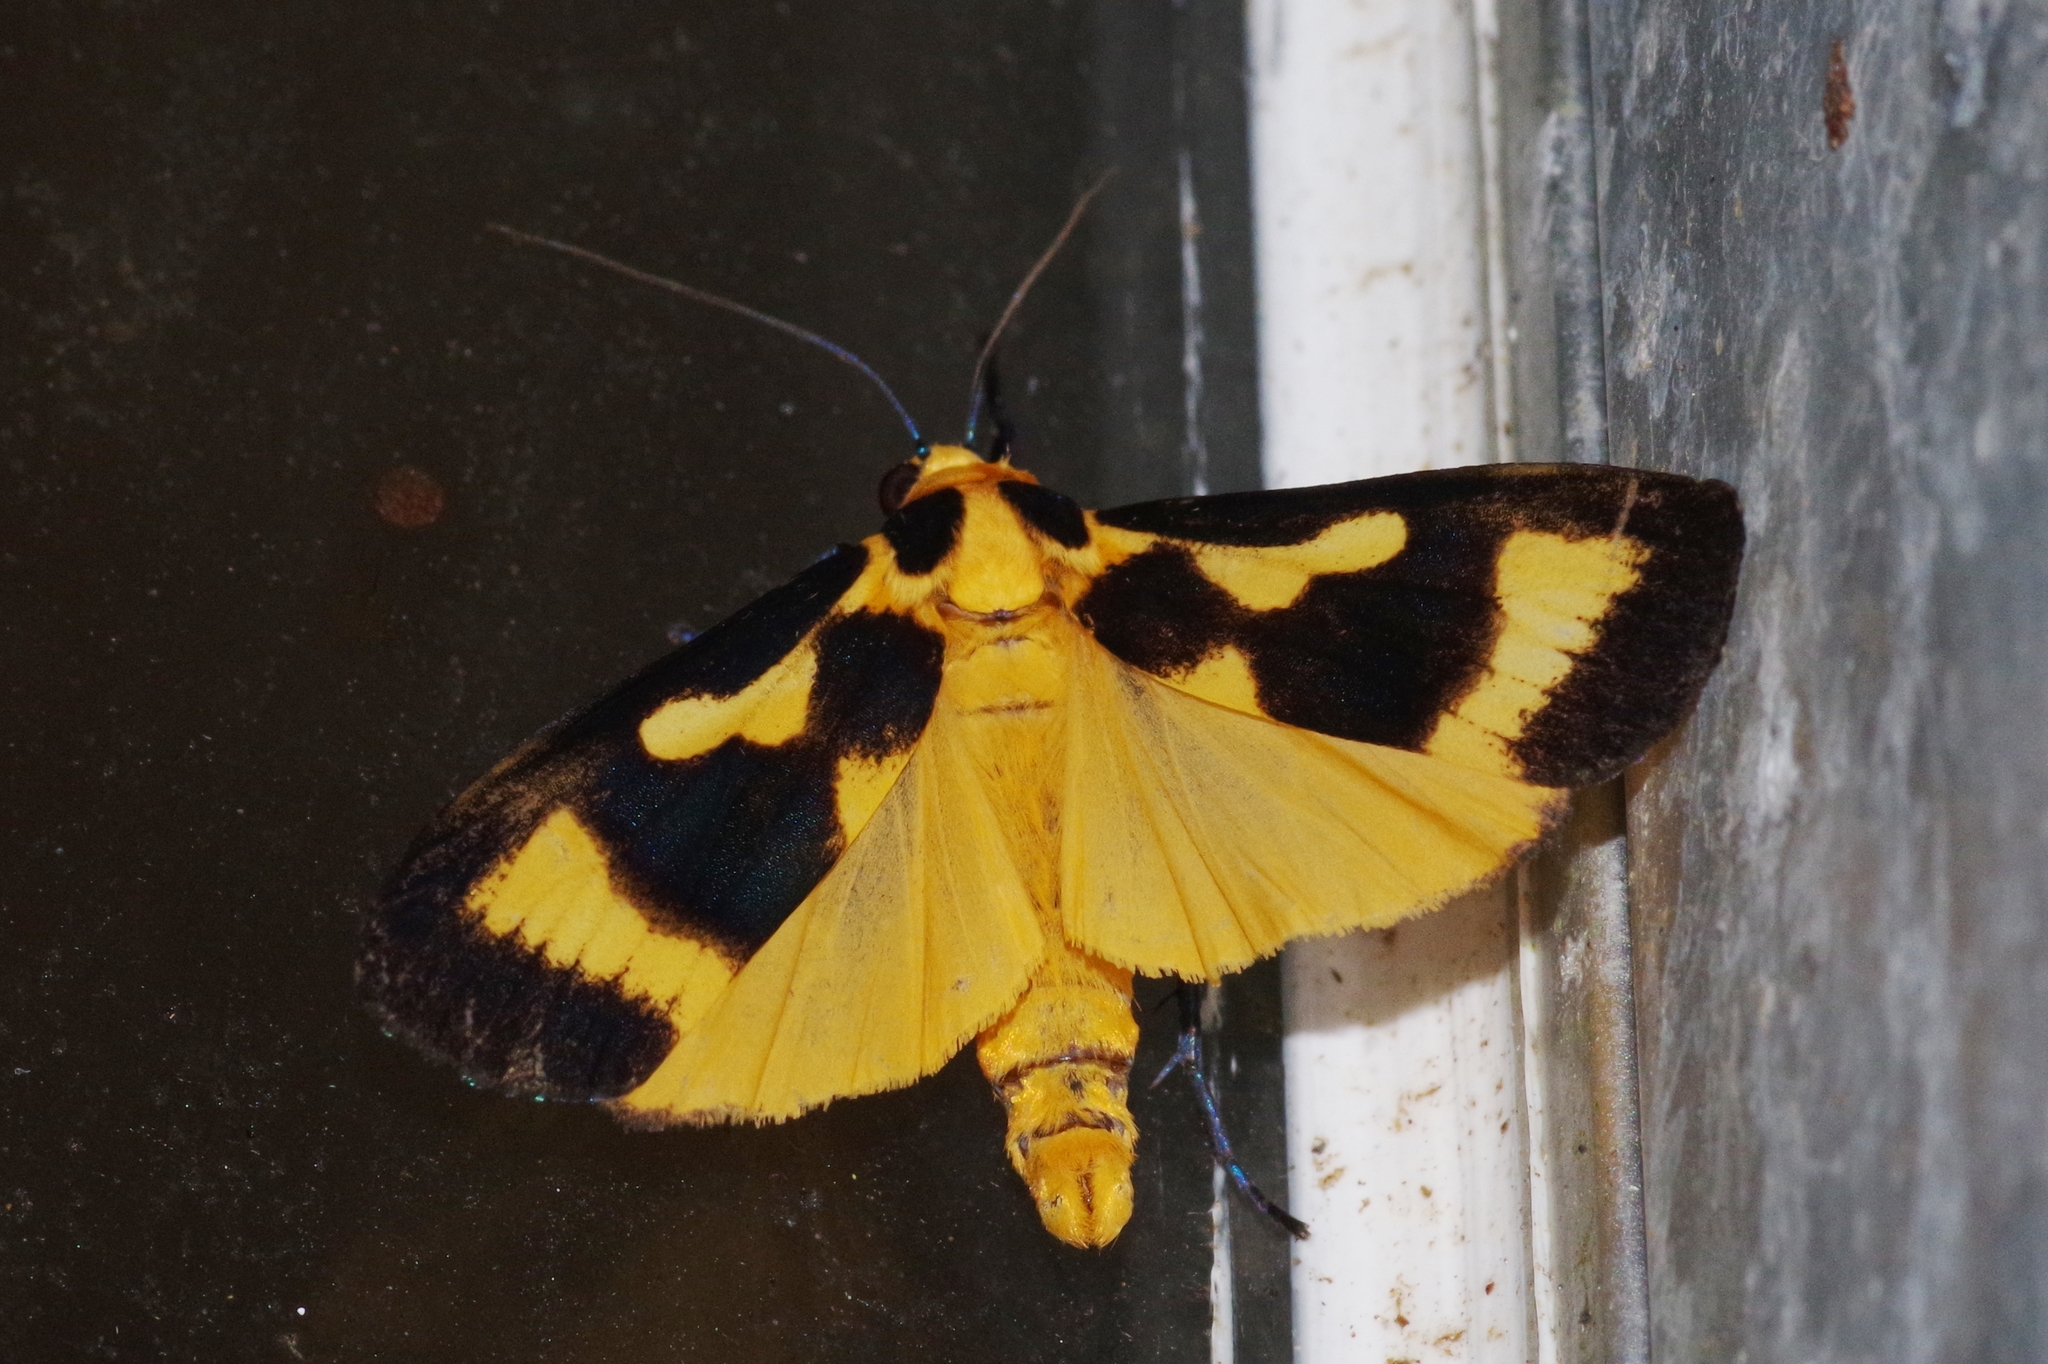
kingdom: Animalia
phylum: Arthropoda
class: Insecta
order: Lepidoptera
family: Erebidae
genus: Chrysaeglia
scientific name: Chrysaeglia magnifica
